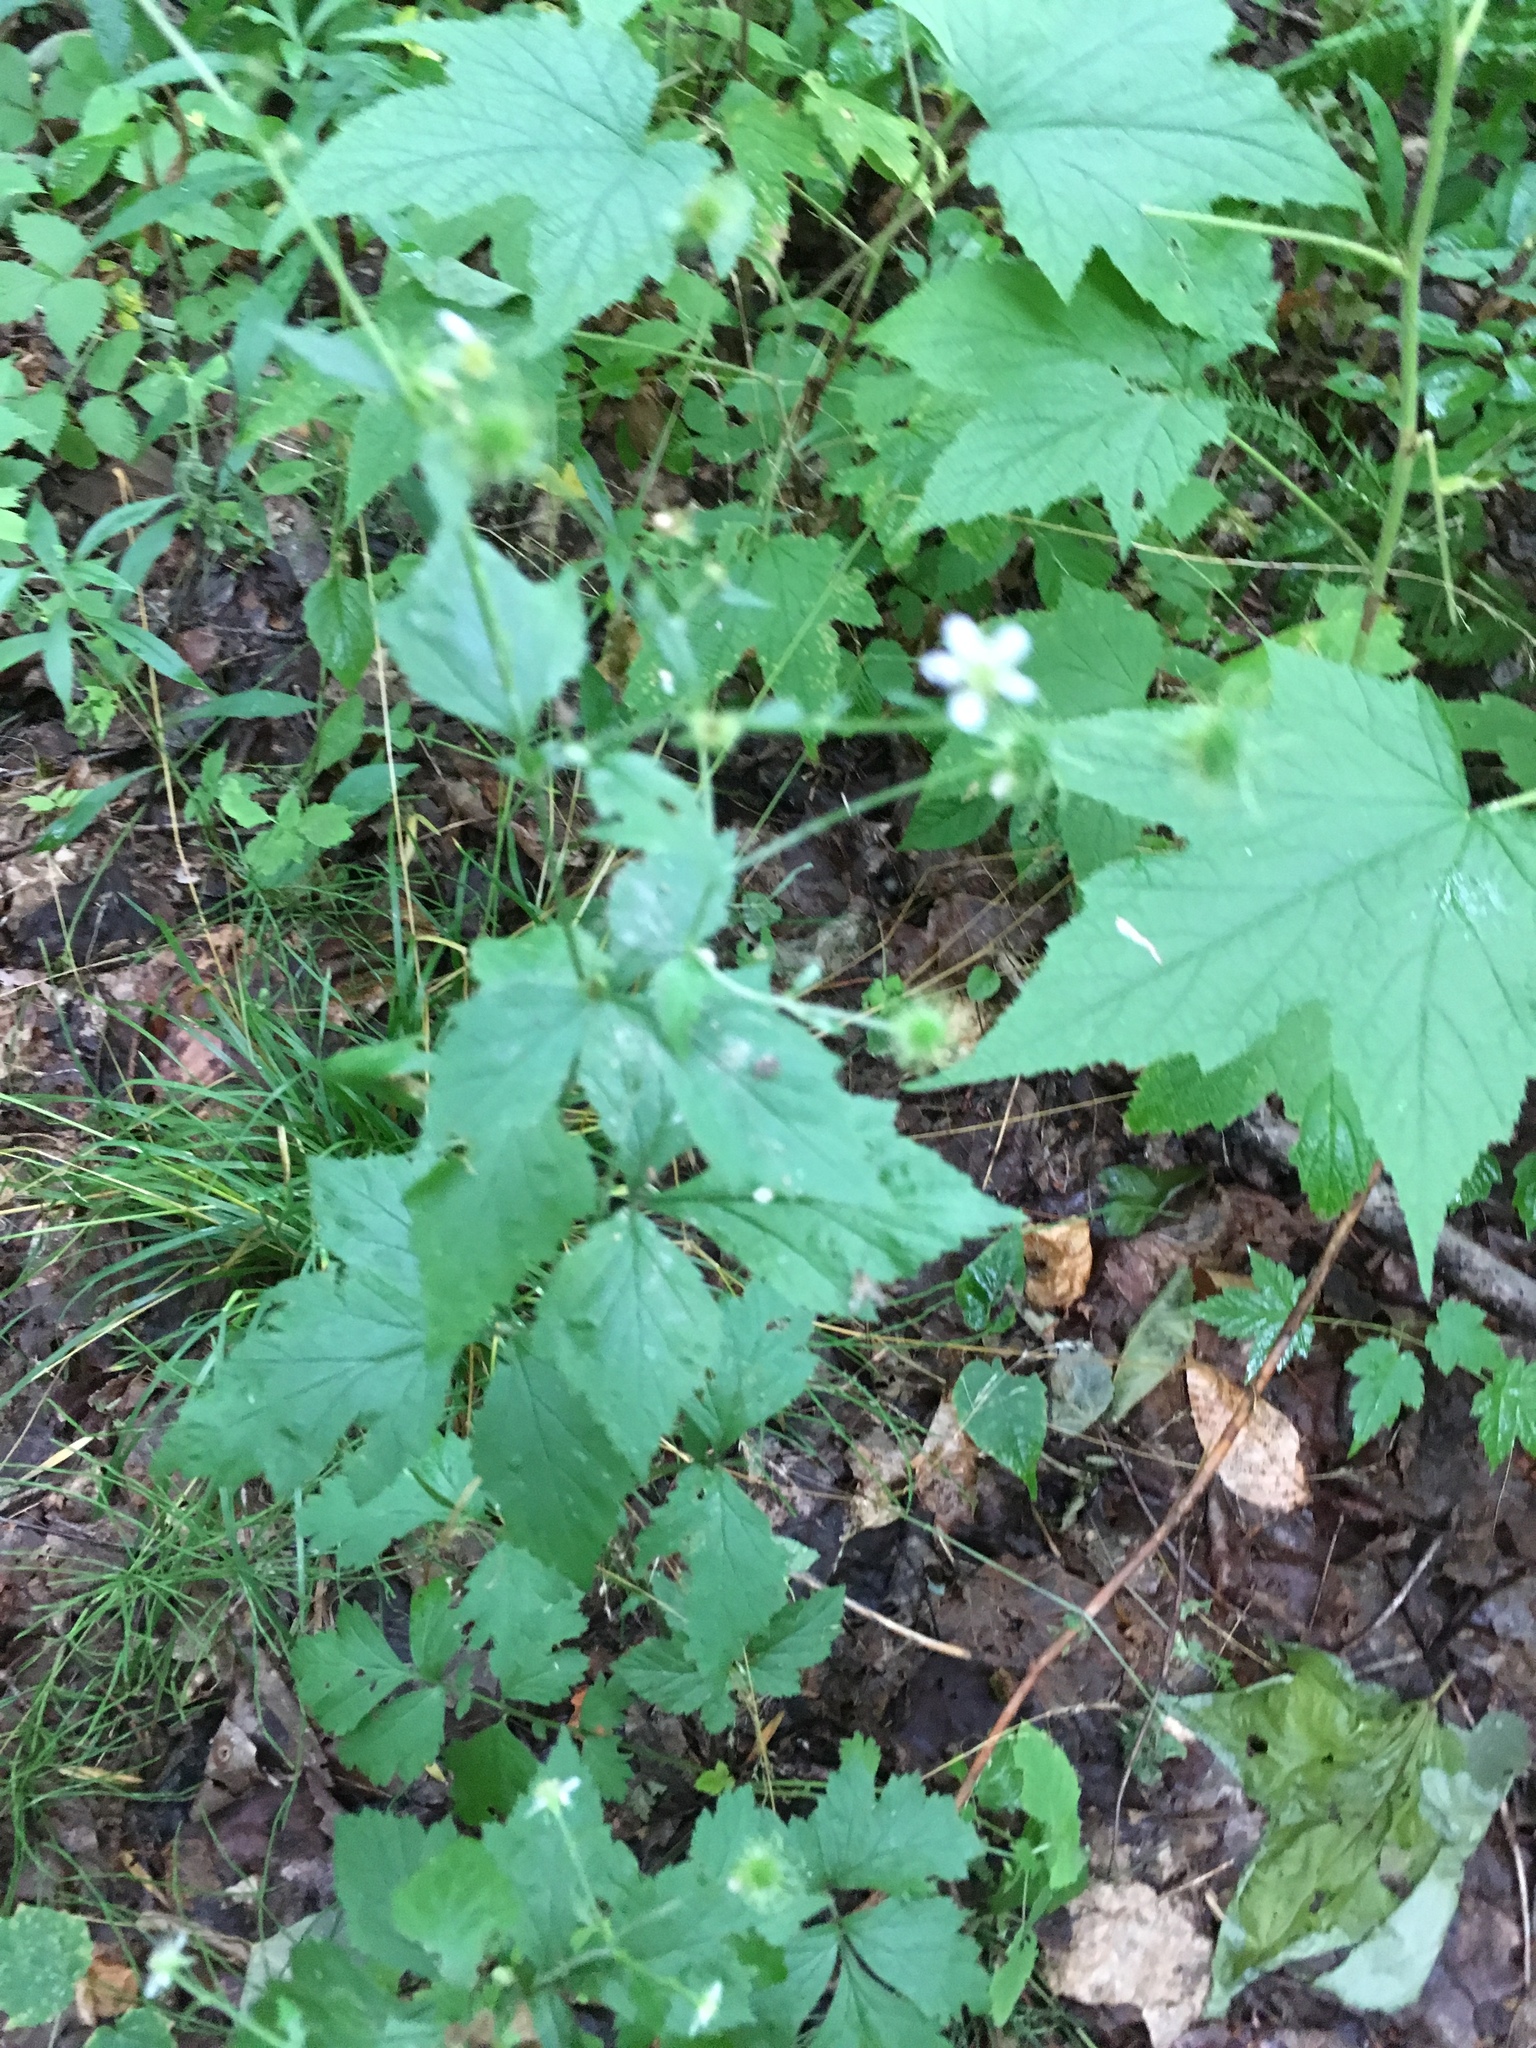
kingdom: Plantae
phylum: Tracheophyta
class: Magnoliopsida
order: Rosales
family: Rosaceae
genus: Geum
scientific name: Geum canadense
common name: White avens
